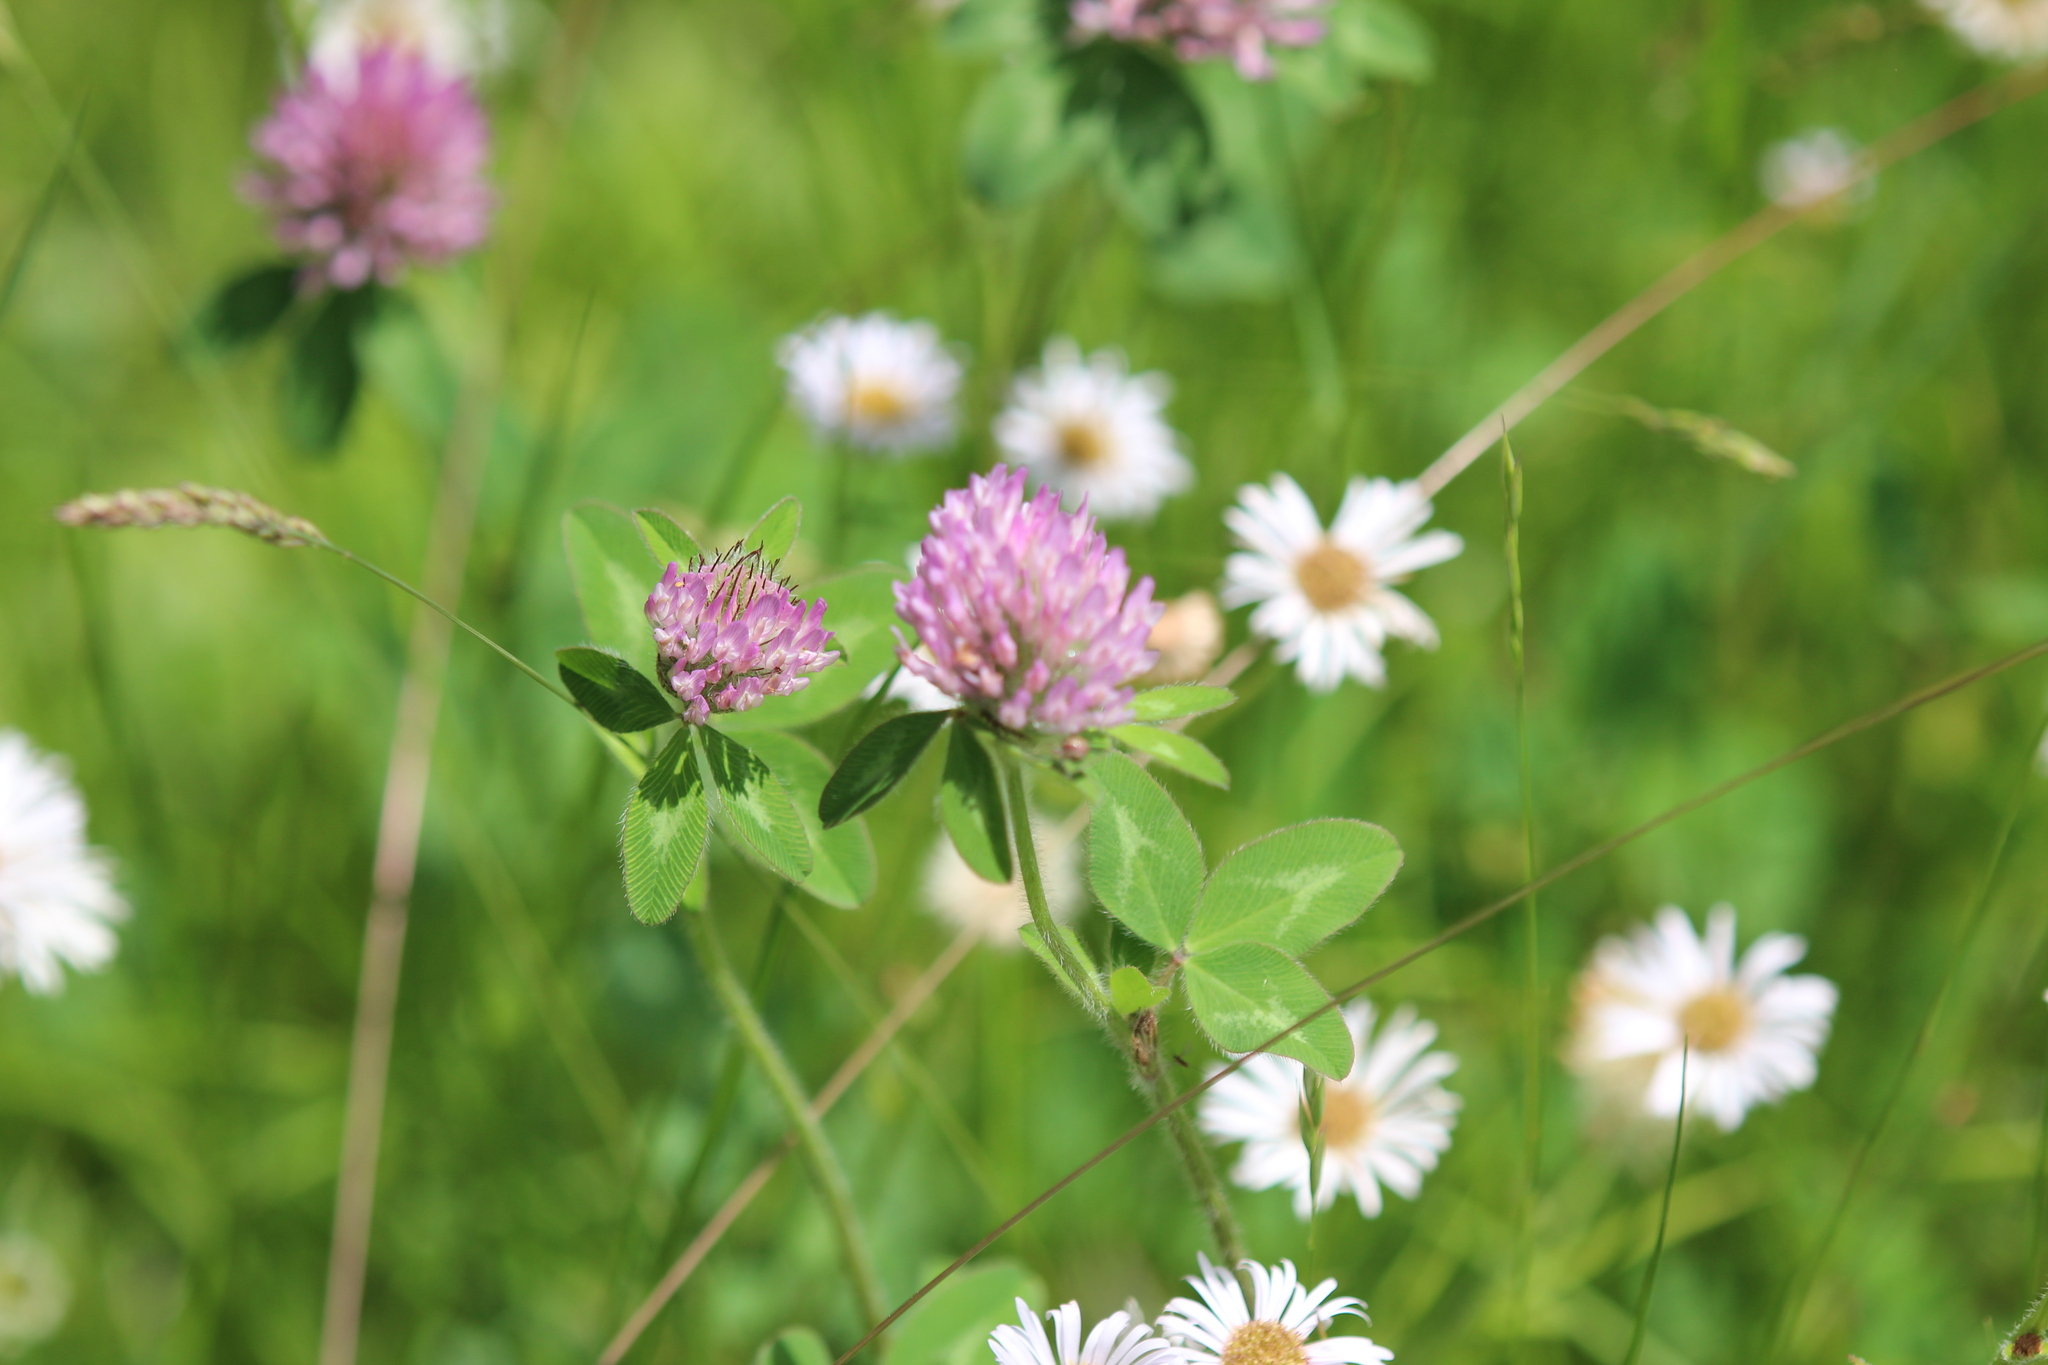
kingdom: Plantae
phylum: Tracheophyta
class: Magnoliopsida
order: Fabales
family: Fabaceae
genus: Trifolium
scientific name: Trifolium pratense
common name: Red clover
